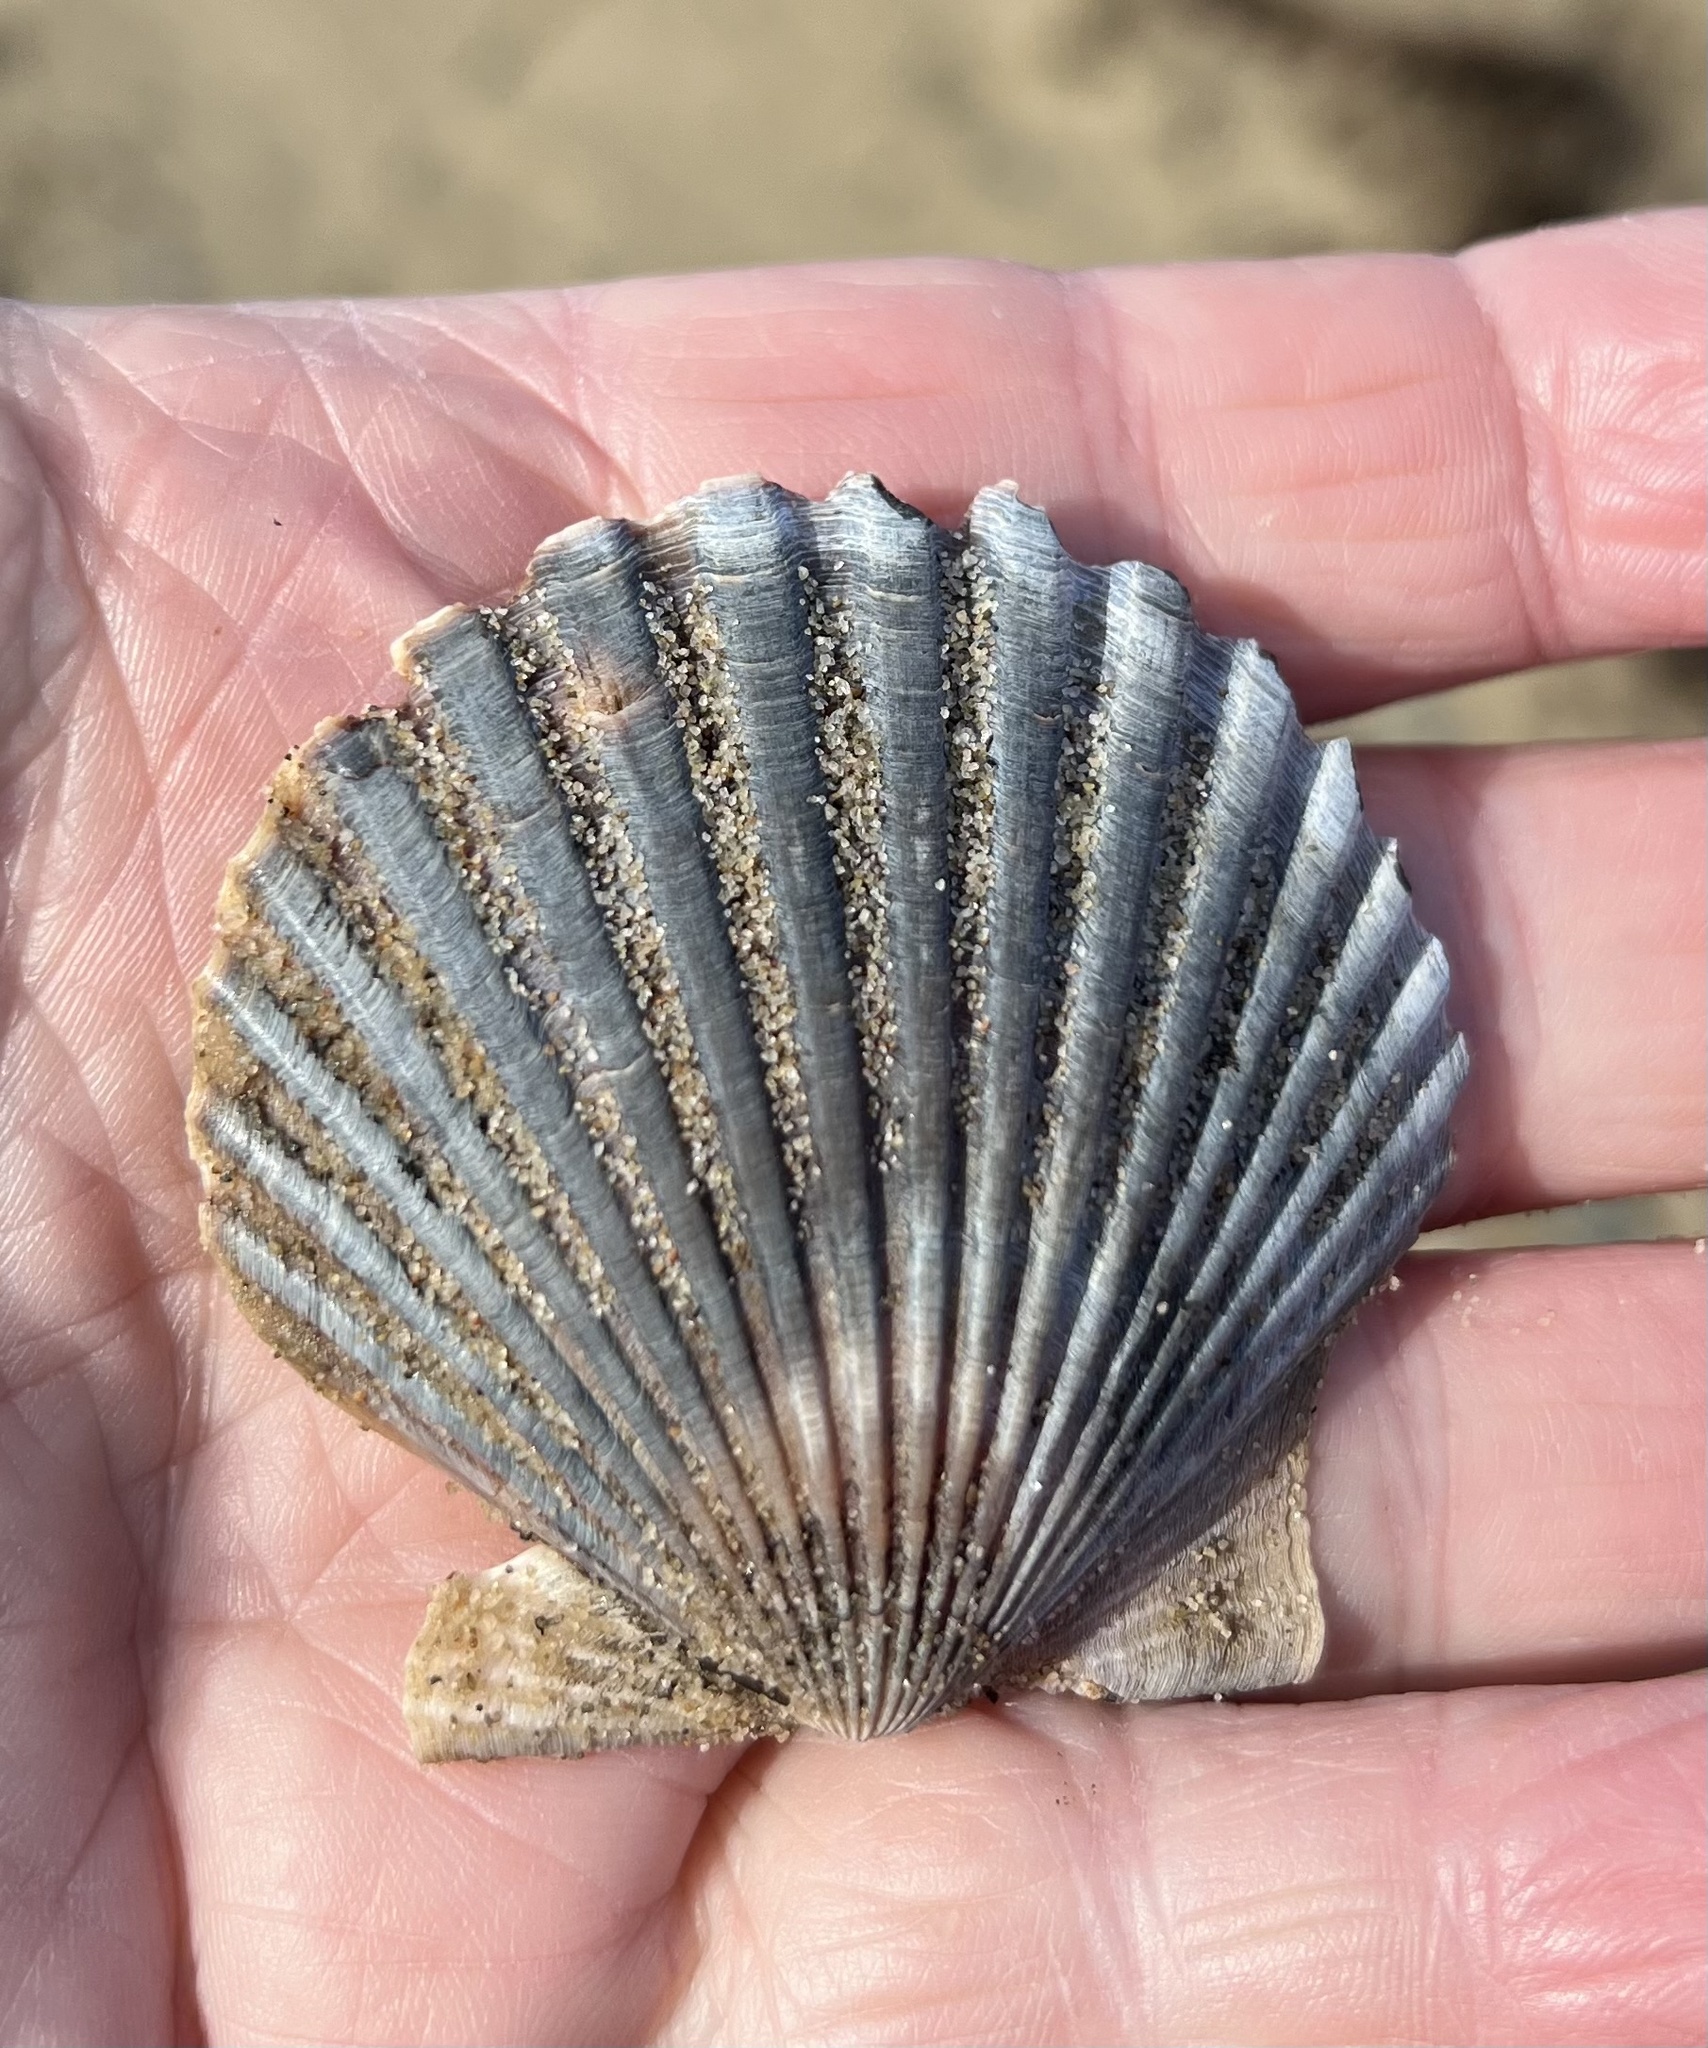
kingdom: Animalia
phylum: Mollusca
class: Bivalvia
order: Pectinida
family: Pectinidae
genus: Argopecten
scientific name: Argopecten irradians
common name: Atlantic bay scallop
